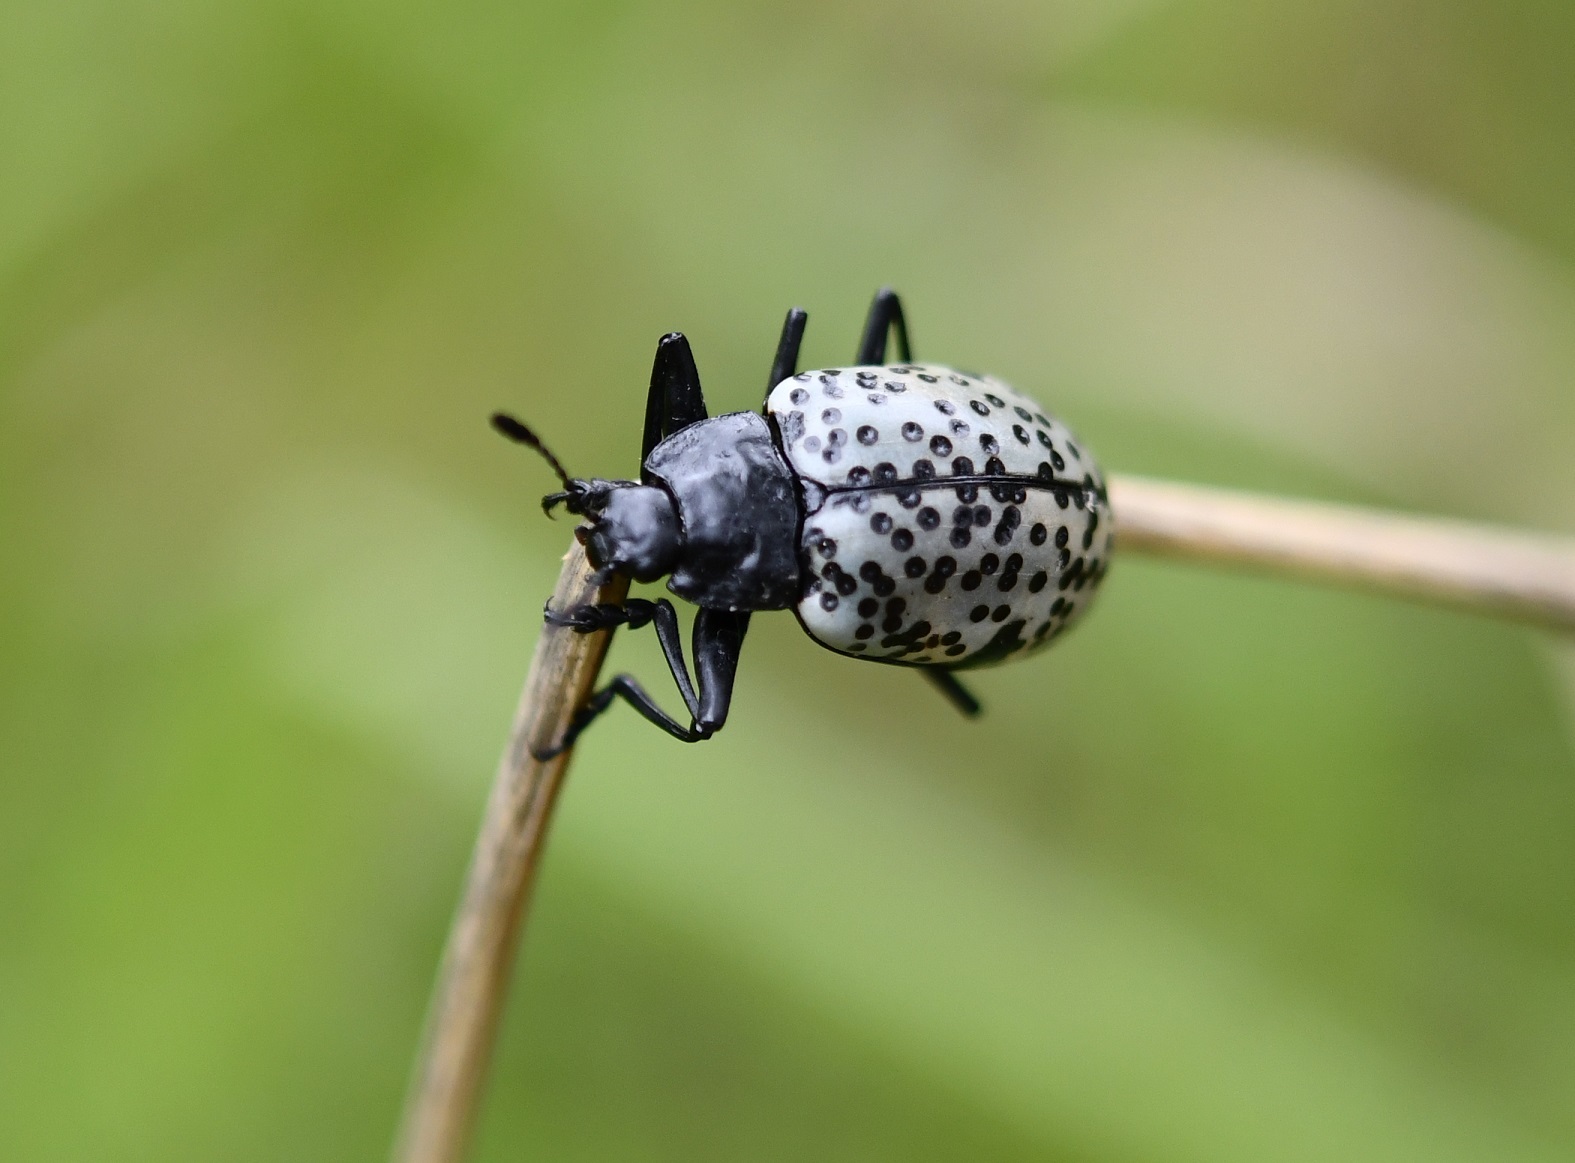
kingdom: Animalia
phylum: Arthropoda
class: Insecta
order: Coleoptera
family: Erotylidae
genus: Gibbifer
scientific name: Gibbifer californicus
